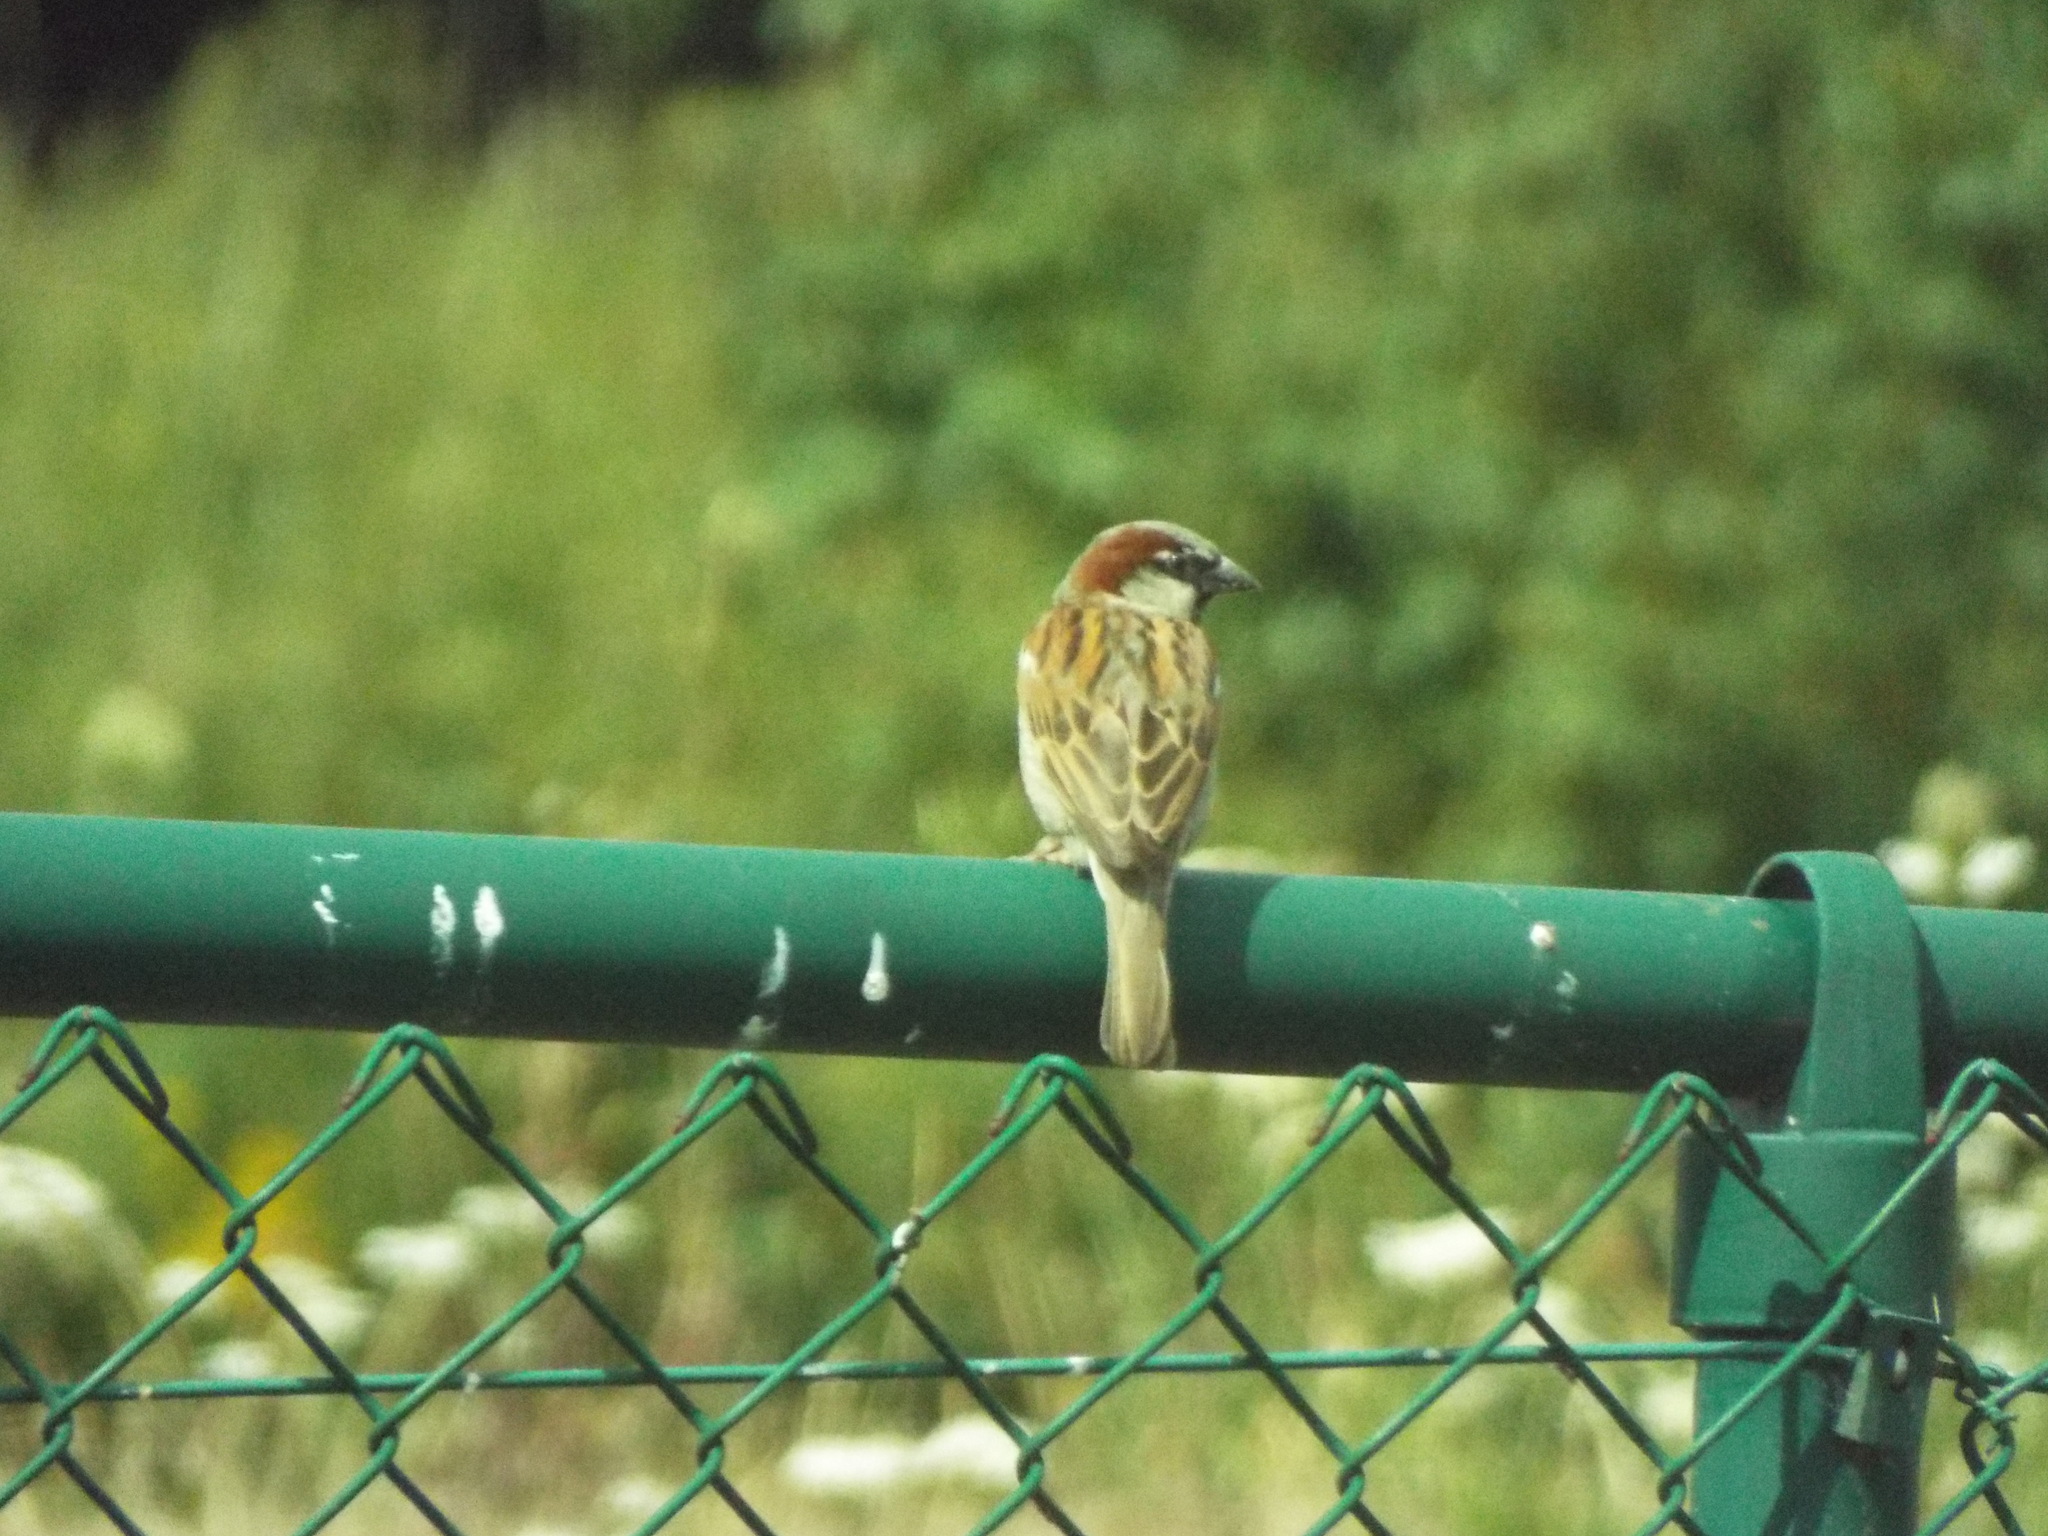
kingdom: Animalia
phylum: Chordata
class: Aves
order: Passeriformes
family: Passeridae
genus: Passer
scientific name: Passer domesticus
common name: House sparrow
